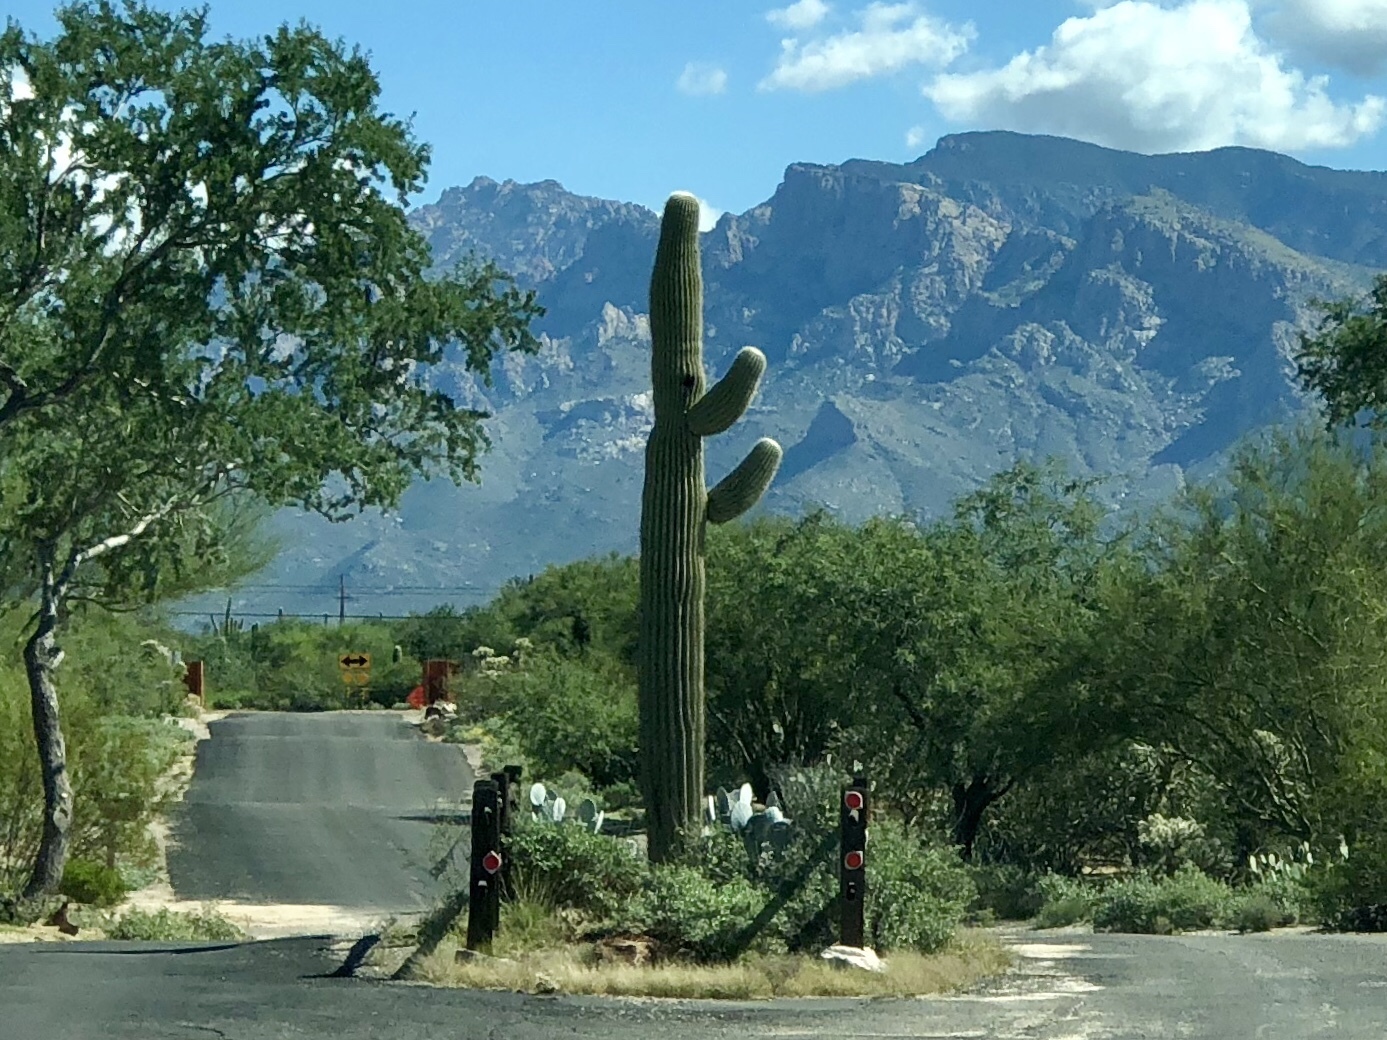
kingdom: Plantae
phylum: Tracheophyta
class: Magnoliopsida
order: Caryophyllales
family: Cactaceae
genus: Carnegiea
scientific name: Carnegiea gigantea
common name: Saguaro
